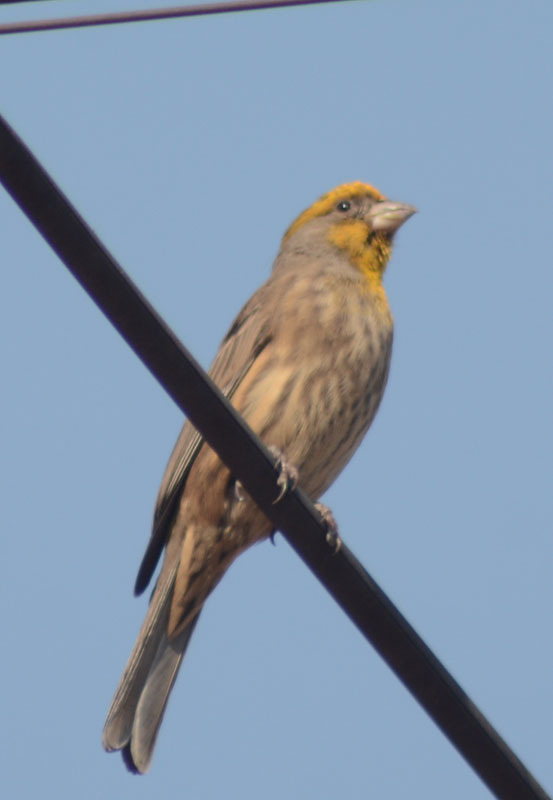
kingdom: Animalia
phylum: Chordata
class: Aves
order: Passeriformes
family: Fringillidae
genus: Haemorhous
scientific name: Haemorhous mexicanus
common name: House finch
